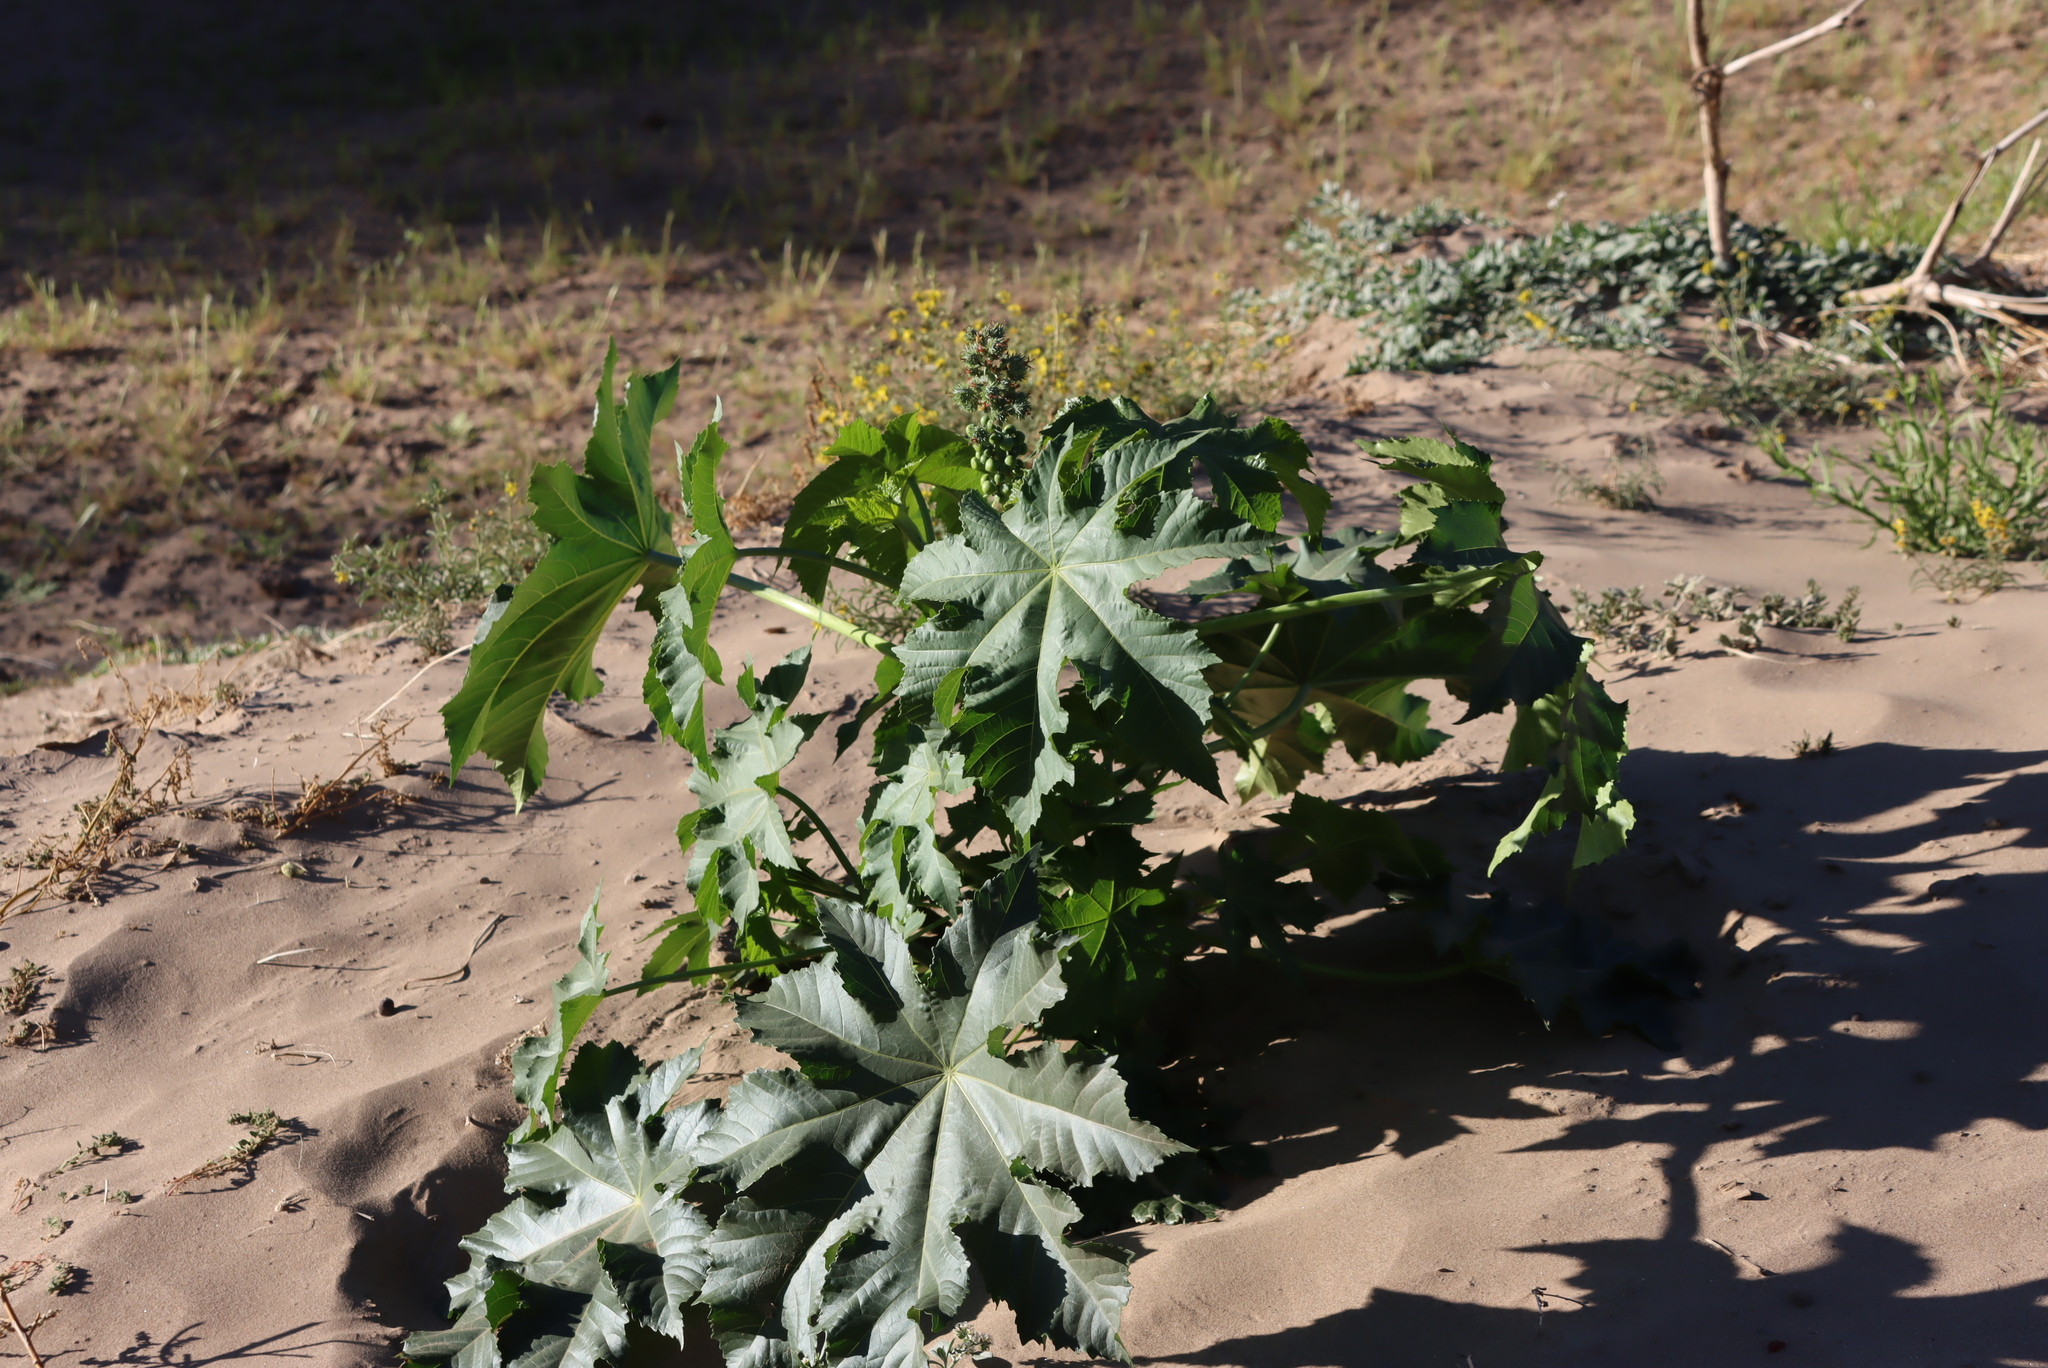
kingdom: Plantae
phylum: Tracheophyta
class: Magnoliopsida
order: Malpighiales
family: Euphorbiaceae
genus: Ricinus
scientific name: Ricinus communis
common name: Castor-oil-plant
